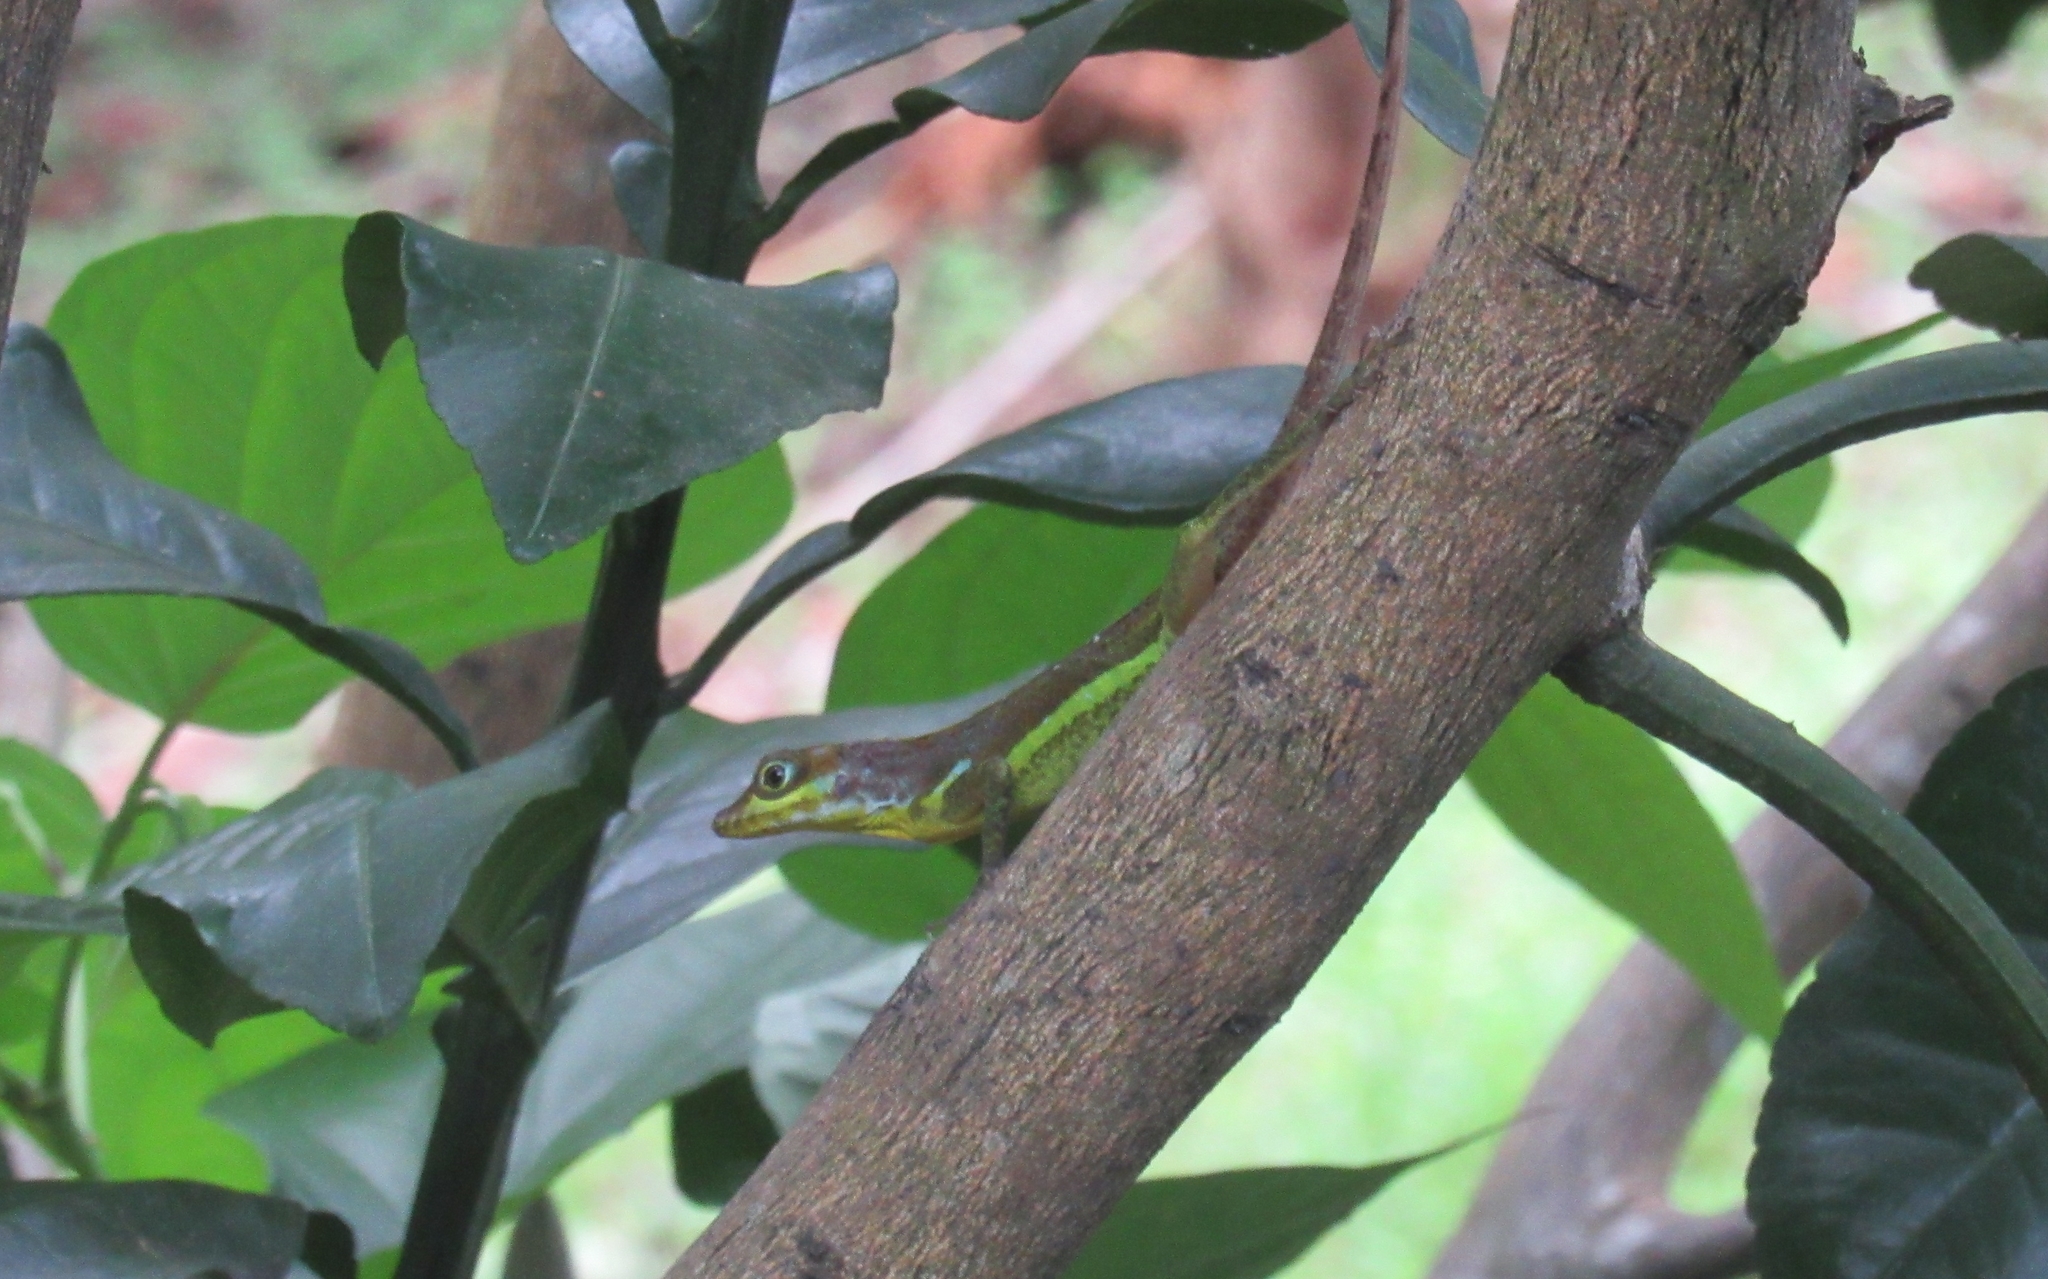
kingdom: Animalia
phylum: Chordata
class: Squamata
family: Dactyloidae
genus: Anolis
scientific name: Anolis richardii
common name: Grenada tree anole
